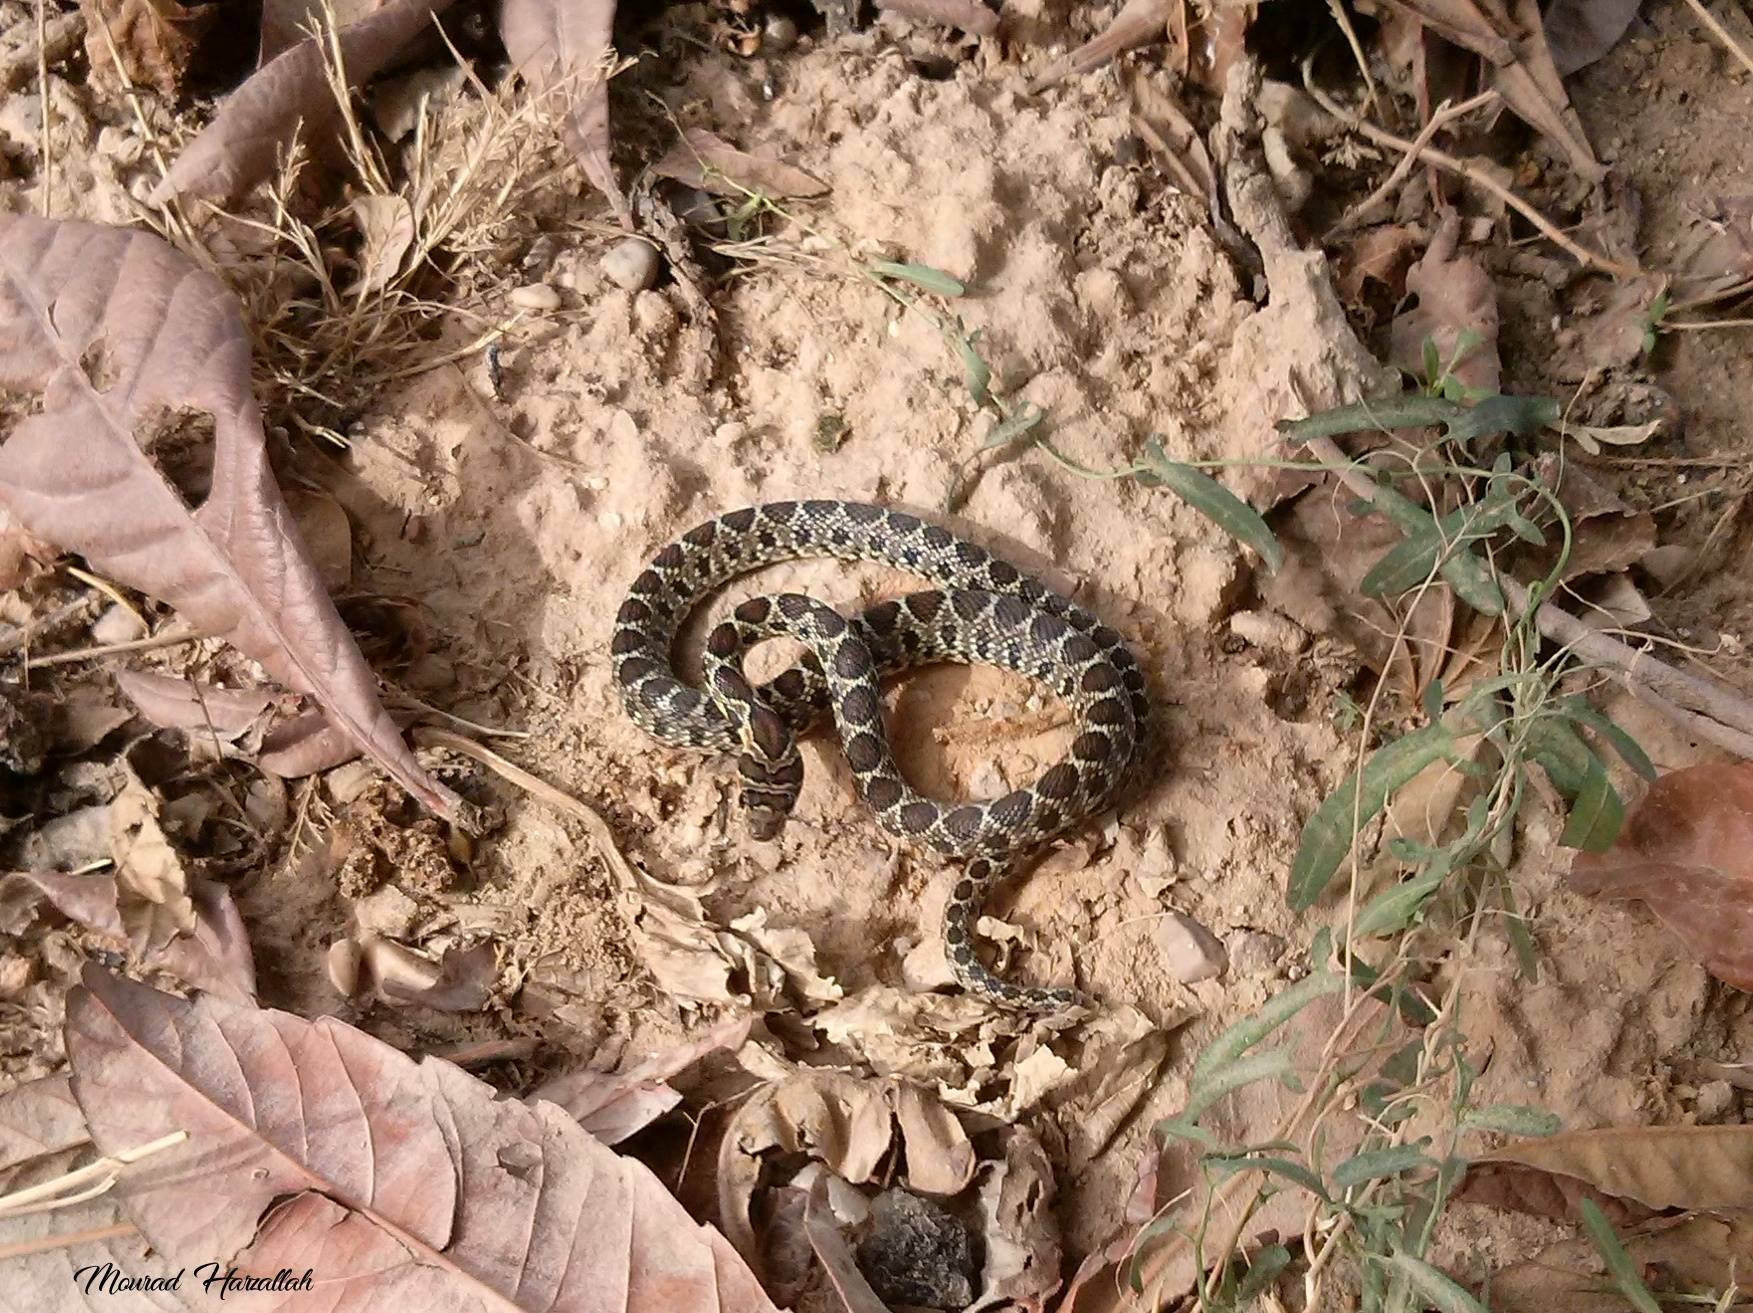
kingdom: Animalia
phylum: Chordata
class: Squamata
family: Colubridae
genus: Hemorrhois
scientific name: Hemorrhois hippocrepis
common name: Horseshoe whip snake
